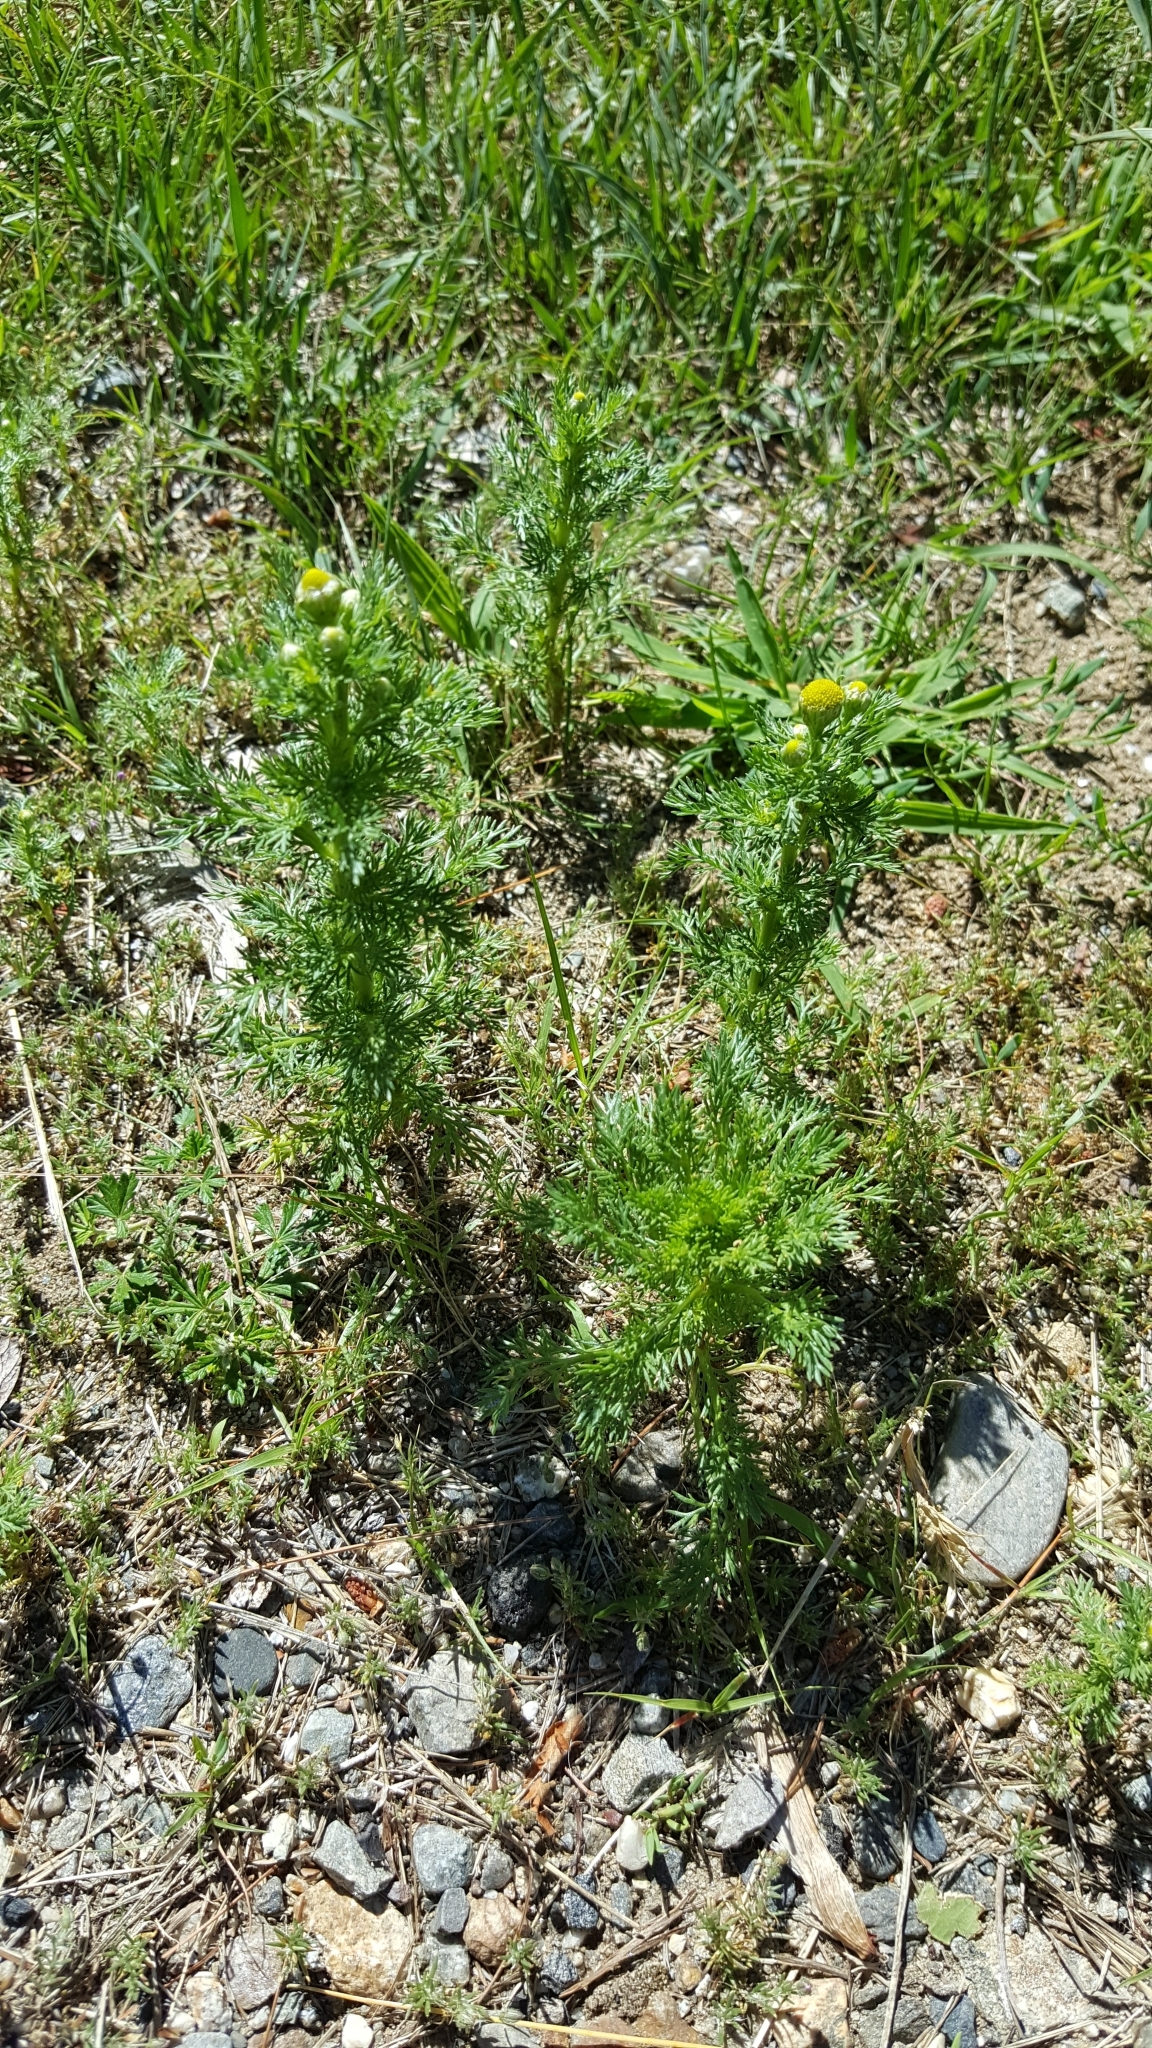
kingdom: Plantae
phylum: Tracheophyta
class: Magnoliopsida
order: Asterales
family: Asteraceae
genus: Matricaria
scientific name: Matricaria discoidea
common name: Disc mayweed
